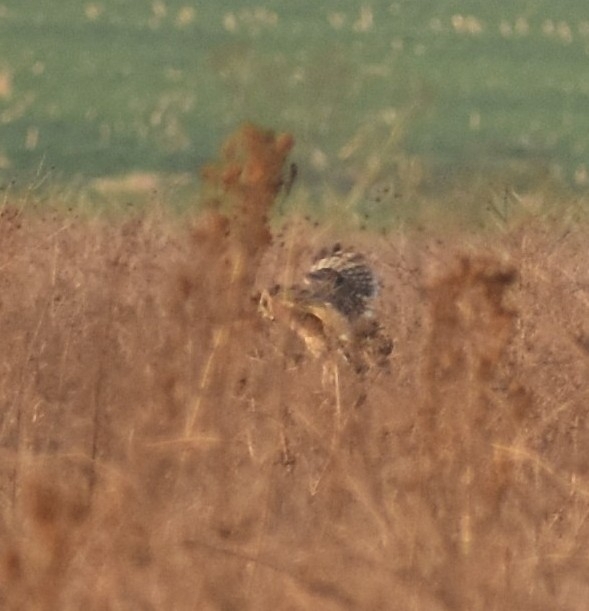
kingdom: Animalia
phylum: Chordata
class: Aves
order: Strigiformes
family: Strigidae
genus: Asio
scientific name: Asio capensis
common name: Marsh owl
